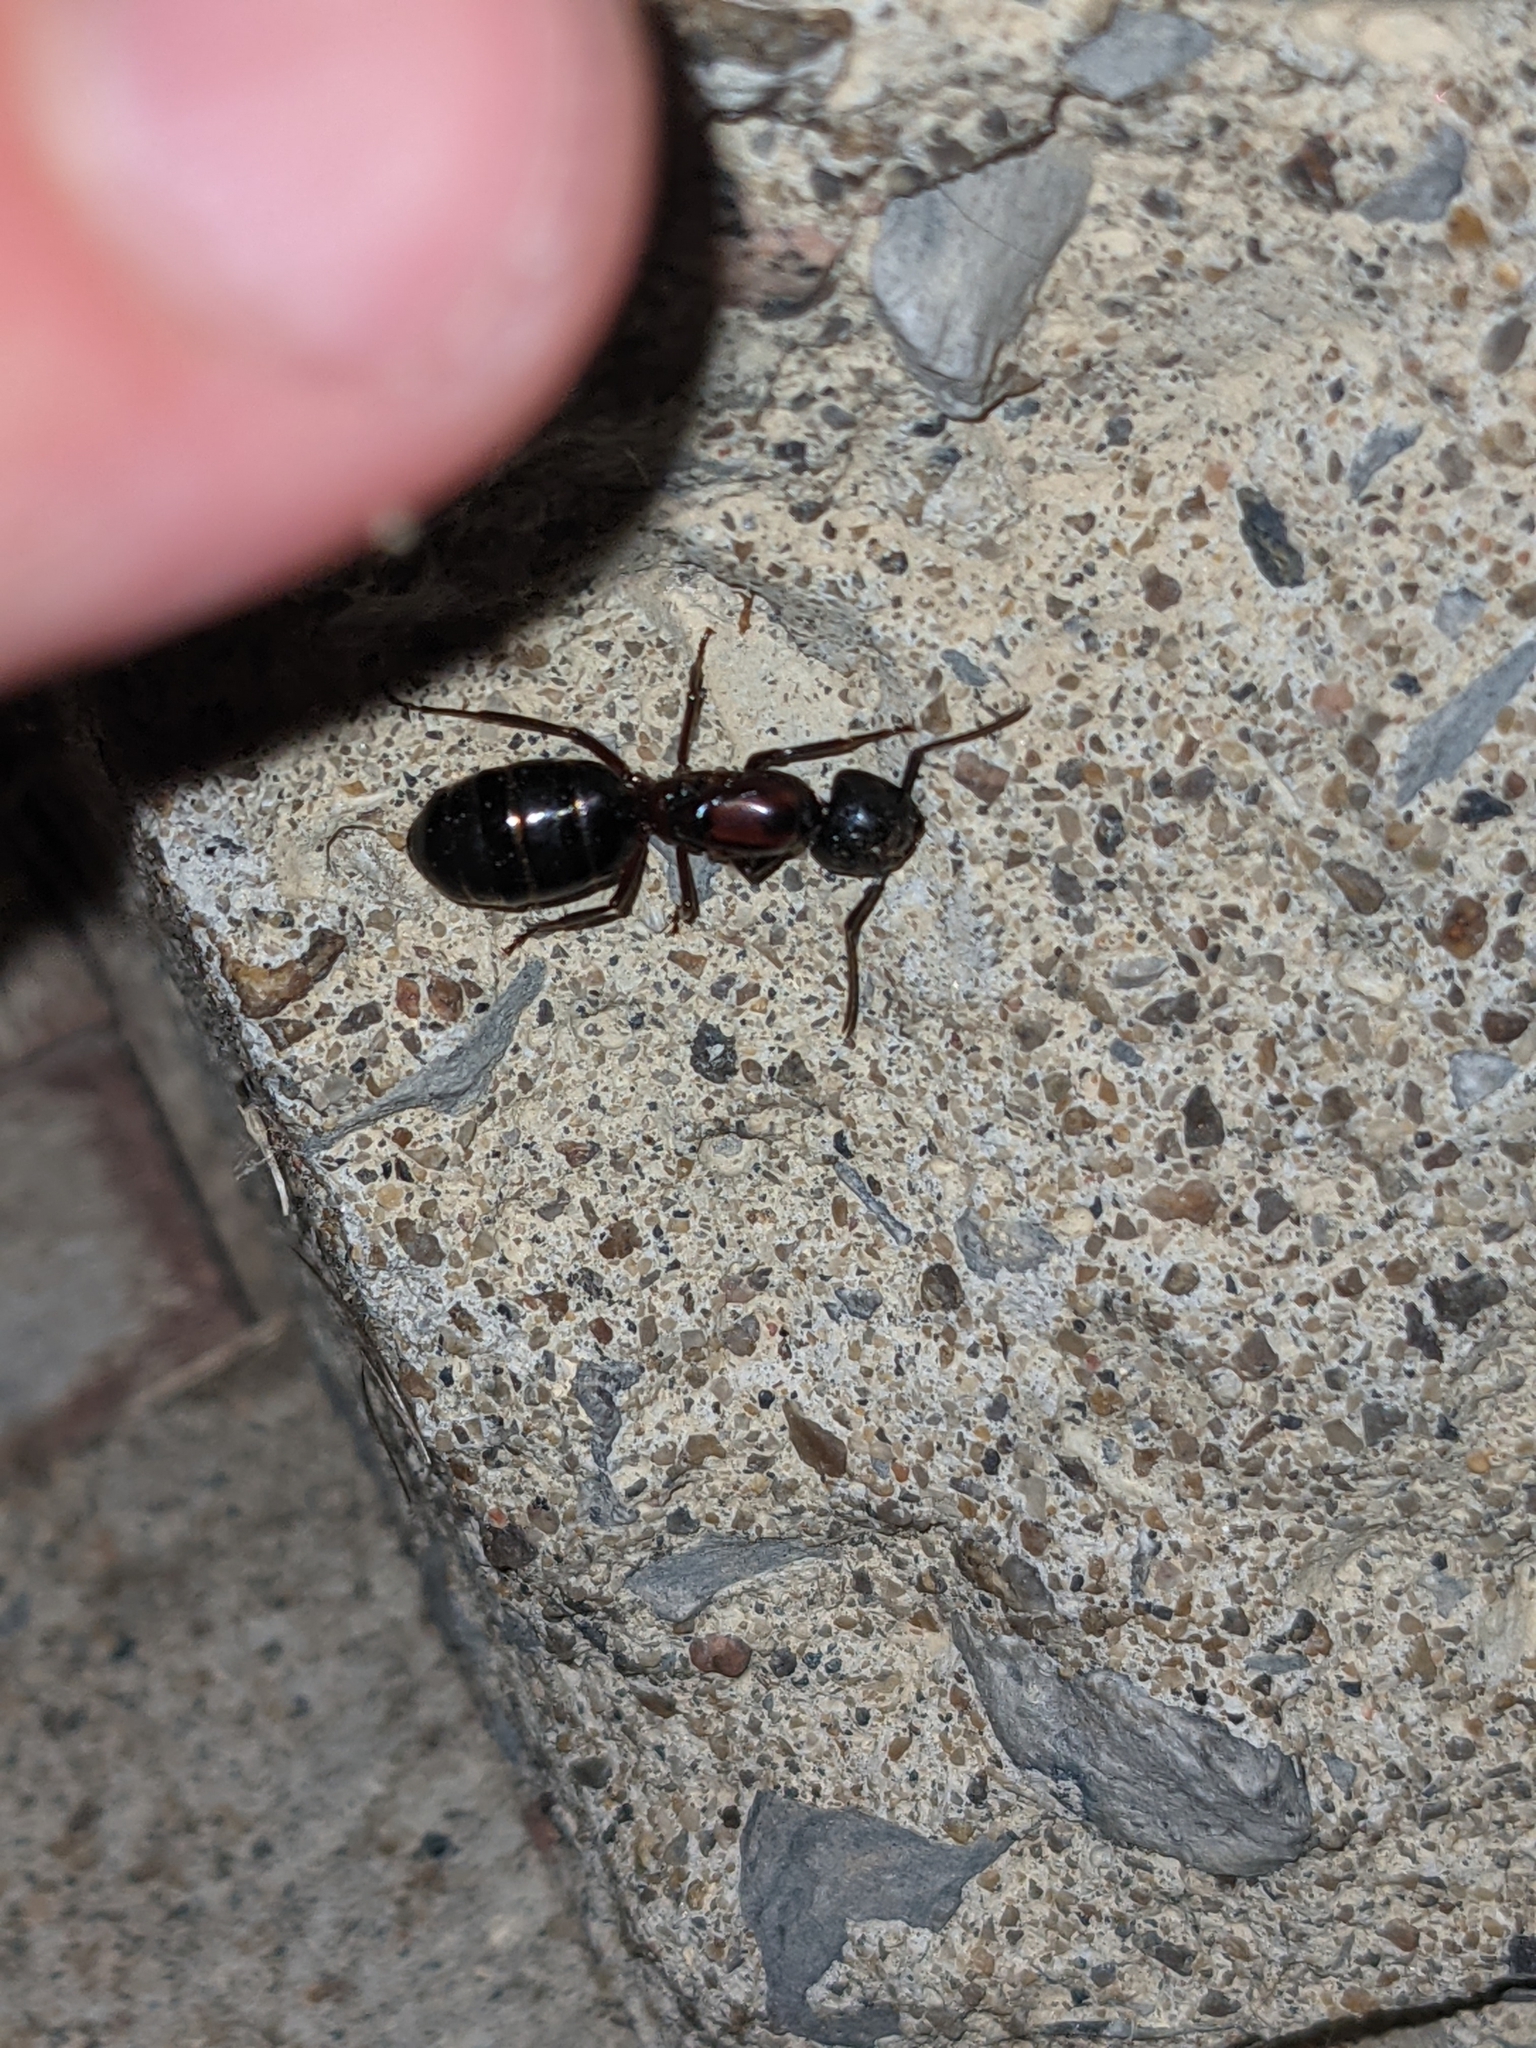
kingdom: Animalia
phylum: Arthropoda
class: Insecta
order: Hymenoptera
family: Formicidae
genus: Camponotus
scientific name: Camponotus novaeboracensis
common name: New york carpenter ant
